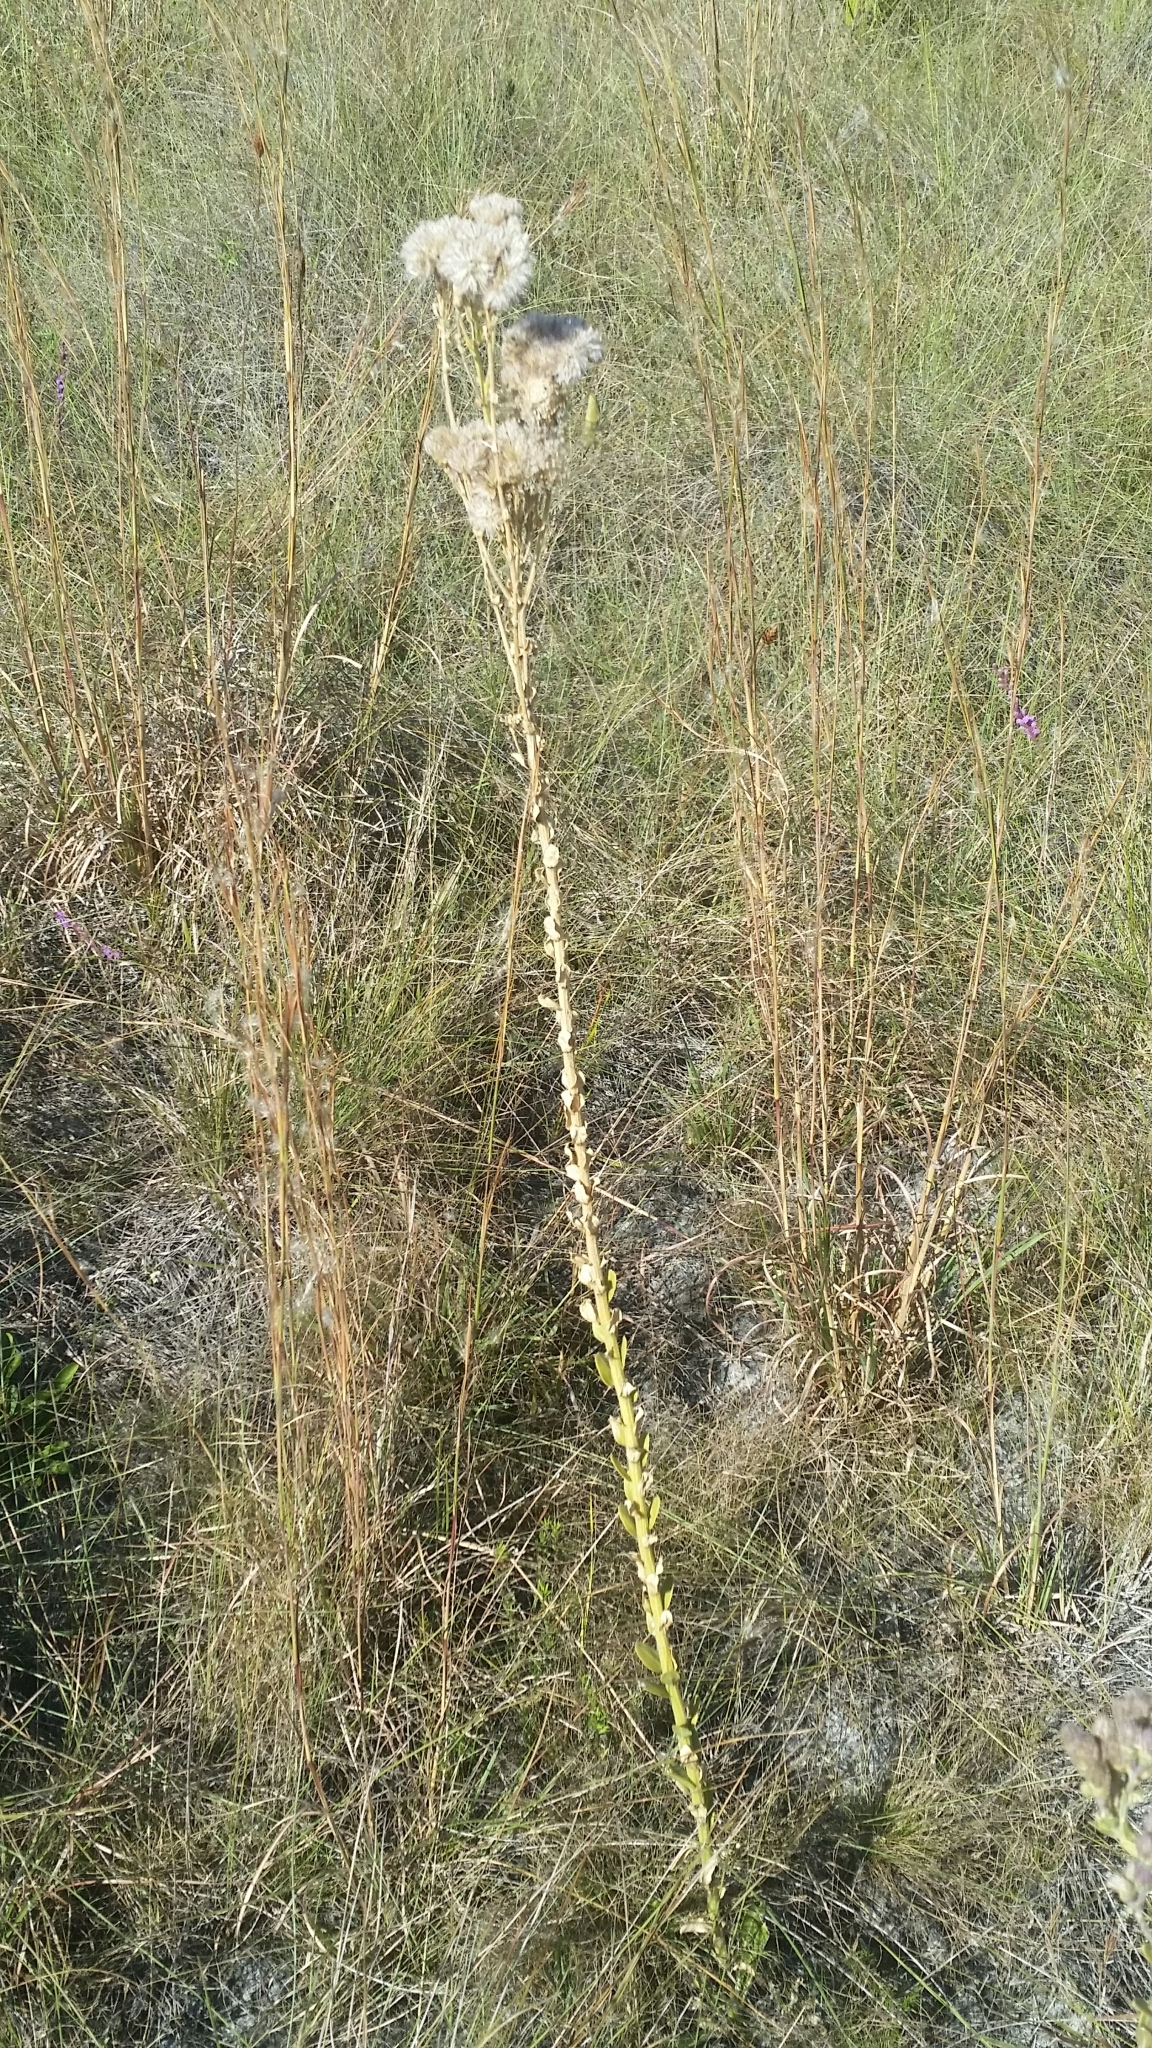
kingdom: Plantae
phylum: Tracheophyta
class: Magnoliopsida
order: Asterales
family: Asteraceae
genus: Carphephorus
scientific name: Carphephorus corymbosus
